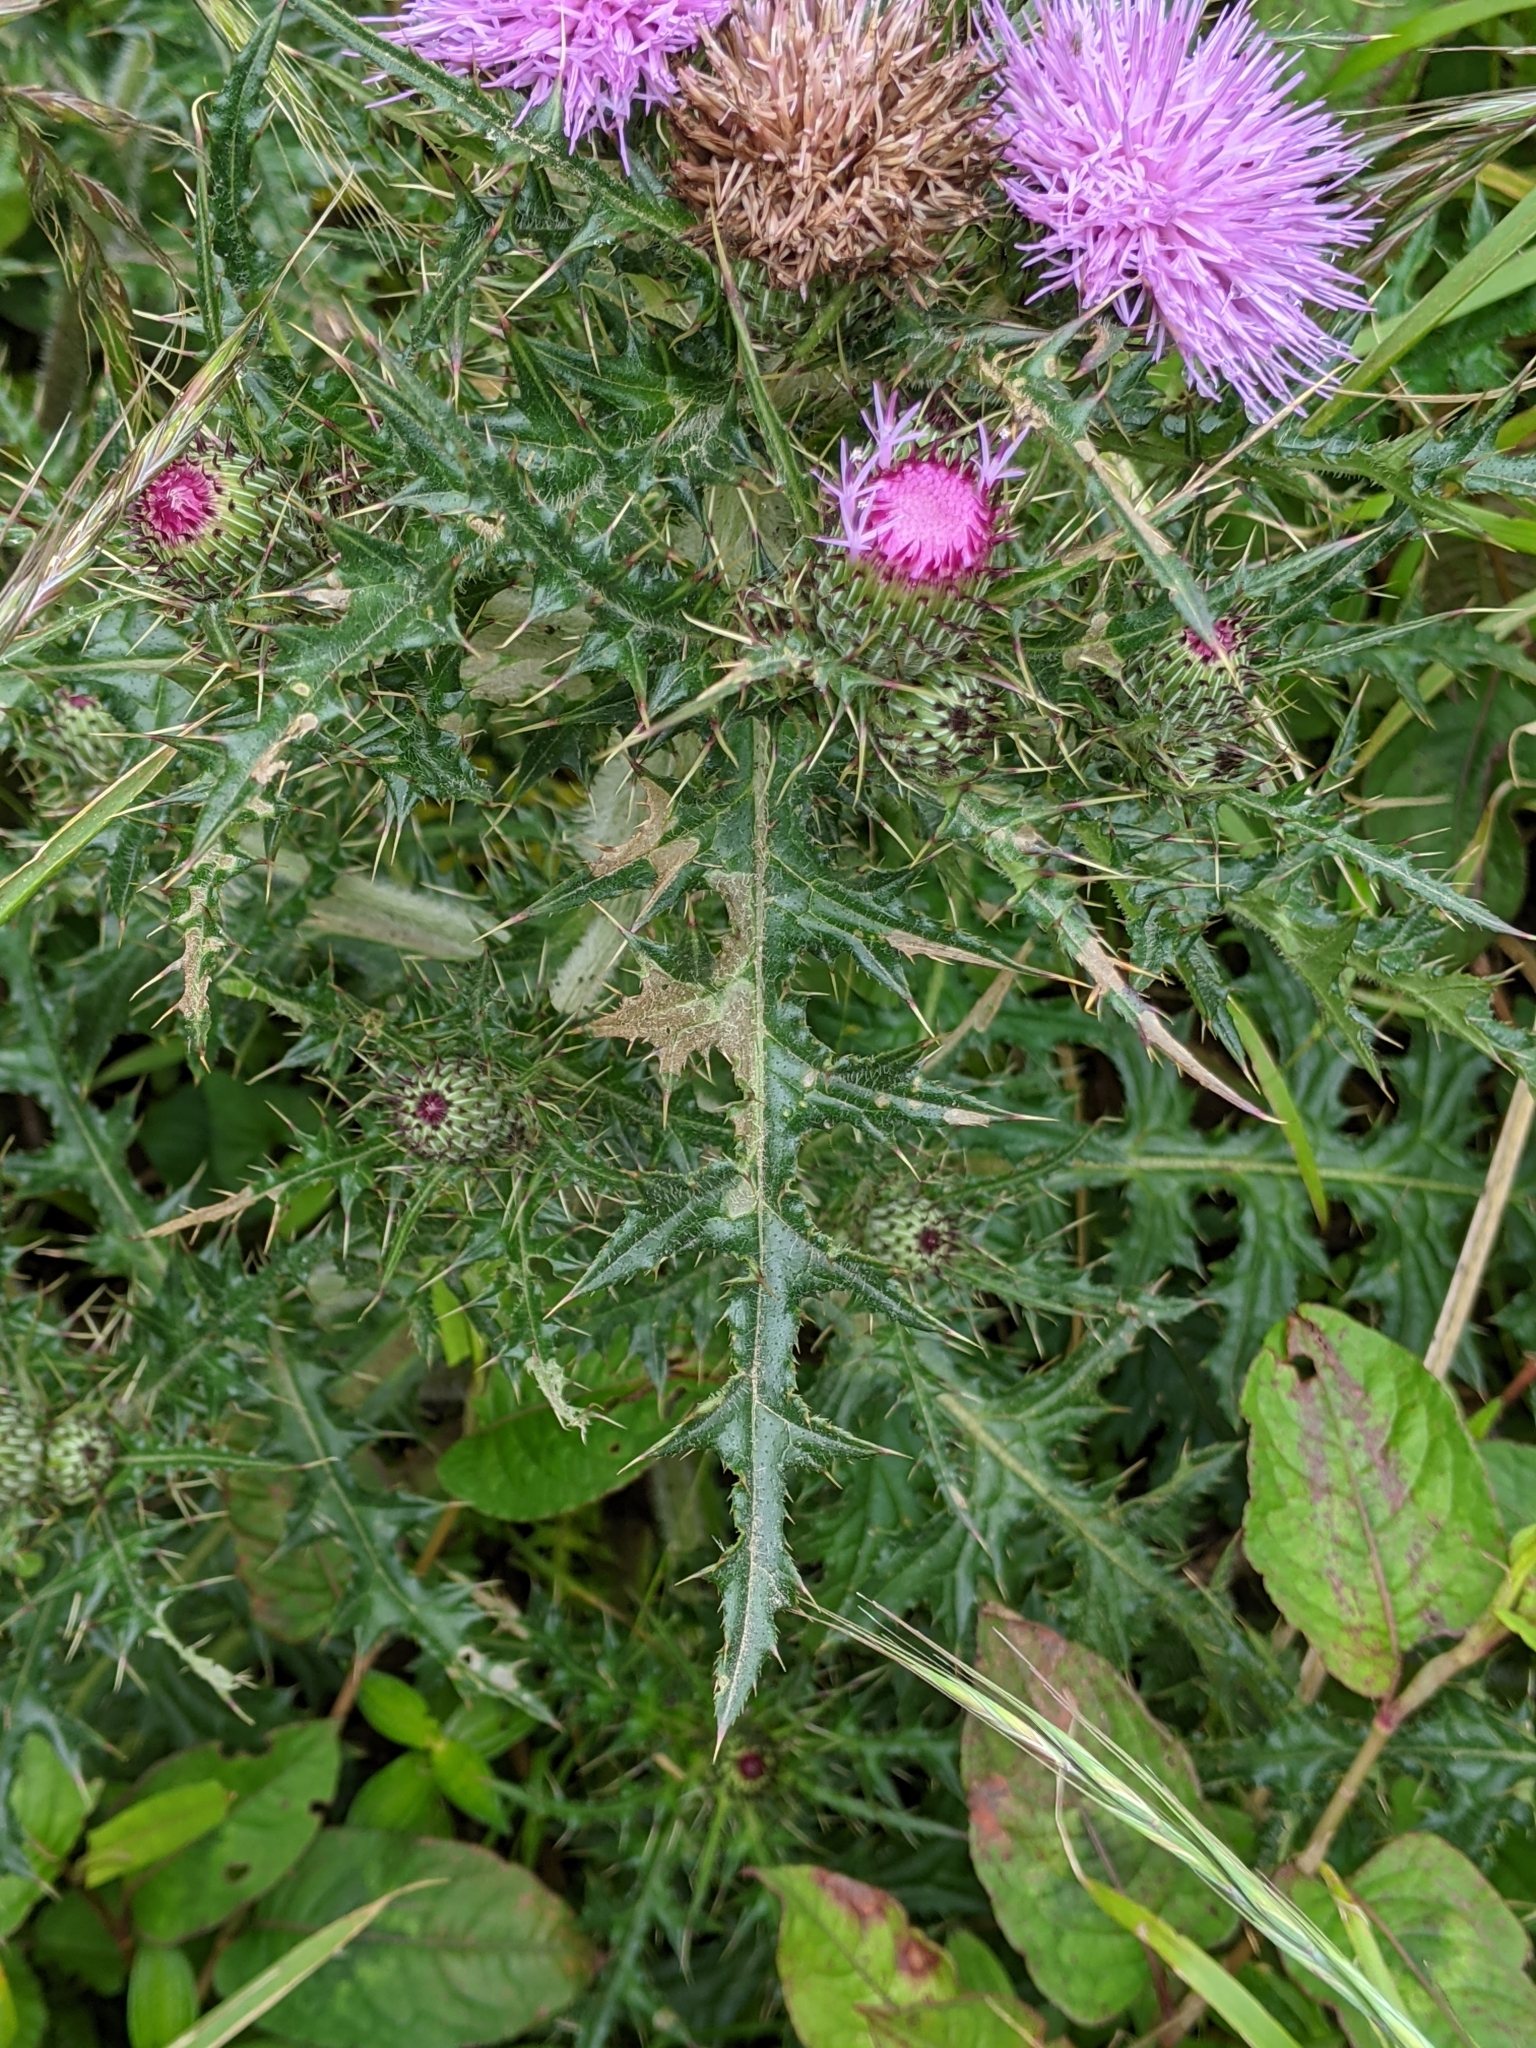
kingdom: Plantae
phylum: Tracheophyta
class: Magnoliopsida
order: Asterales
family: Asteraceae
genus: Cirsium
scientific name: Cirsium japonicum
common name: Japanese thistle
